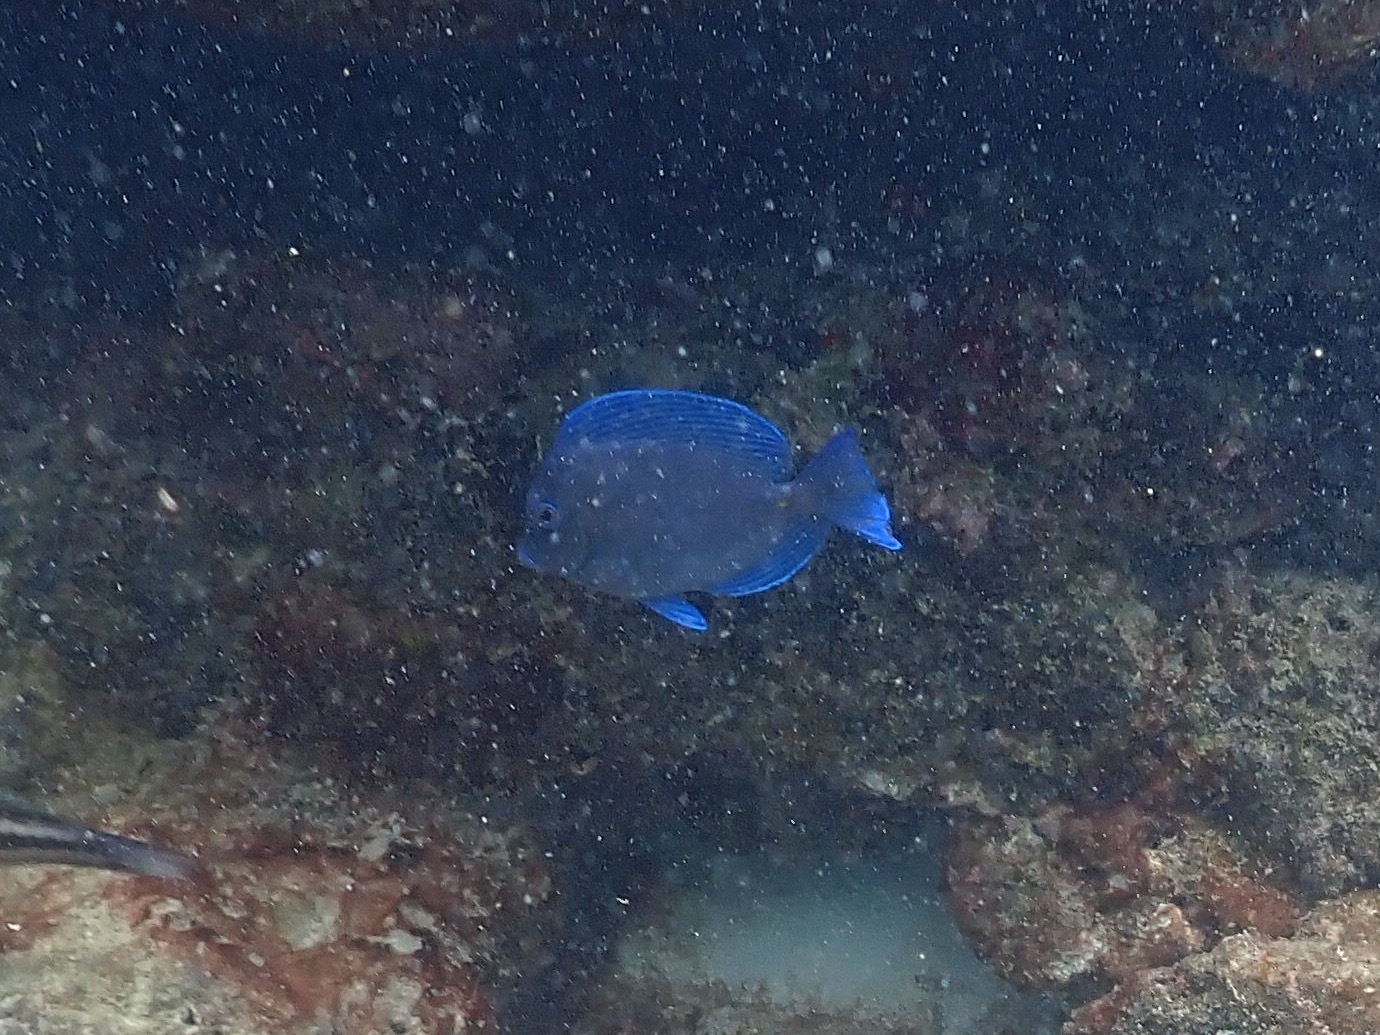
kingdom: Animalia
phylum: Chordata
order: Perciformes
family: Acanthuridae
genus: Acanthurus
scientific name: Acanthurus coeruleus
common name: Blue tang
